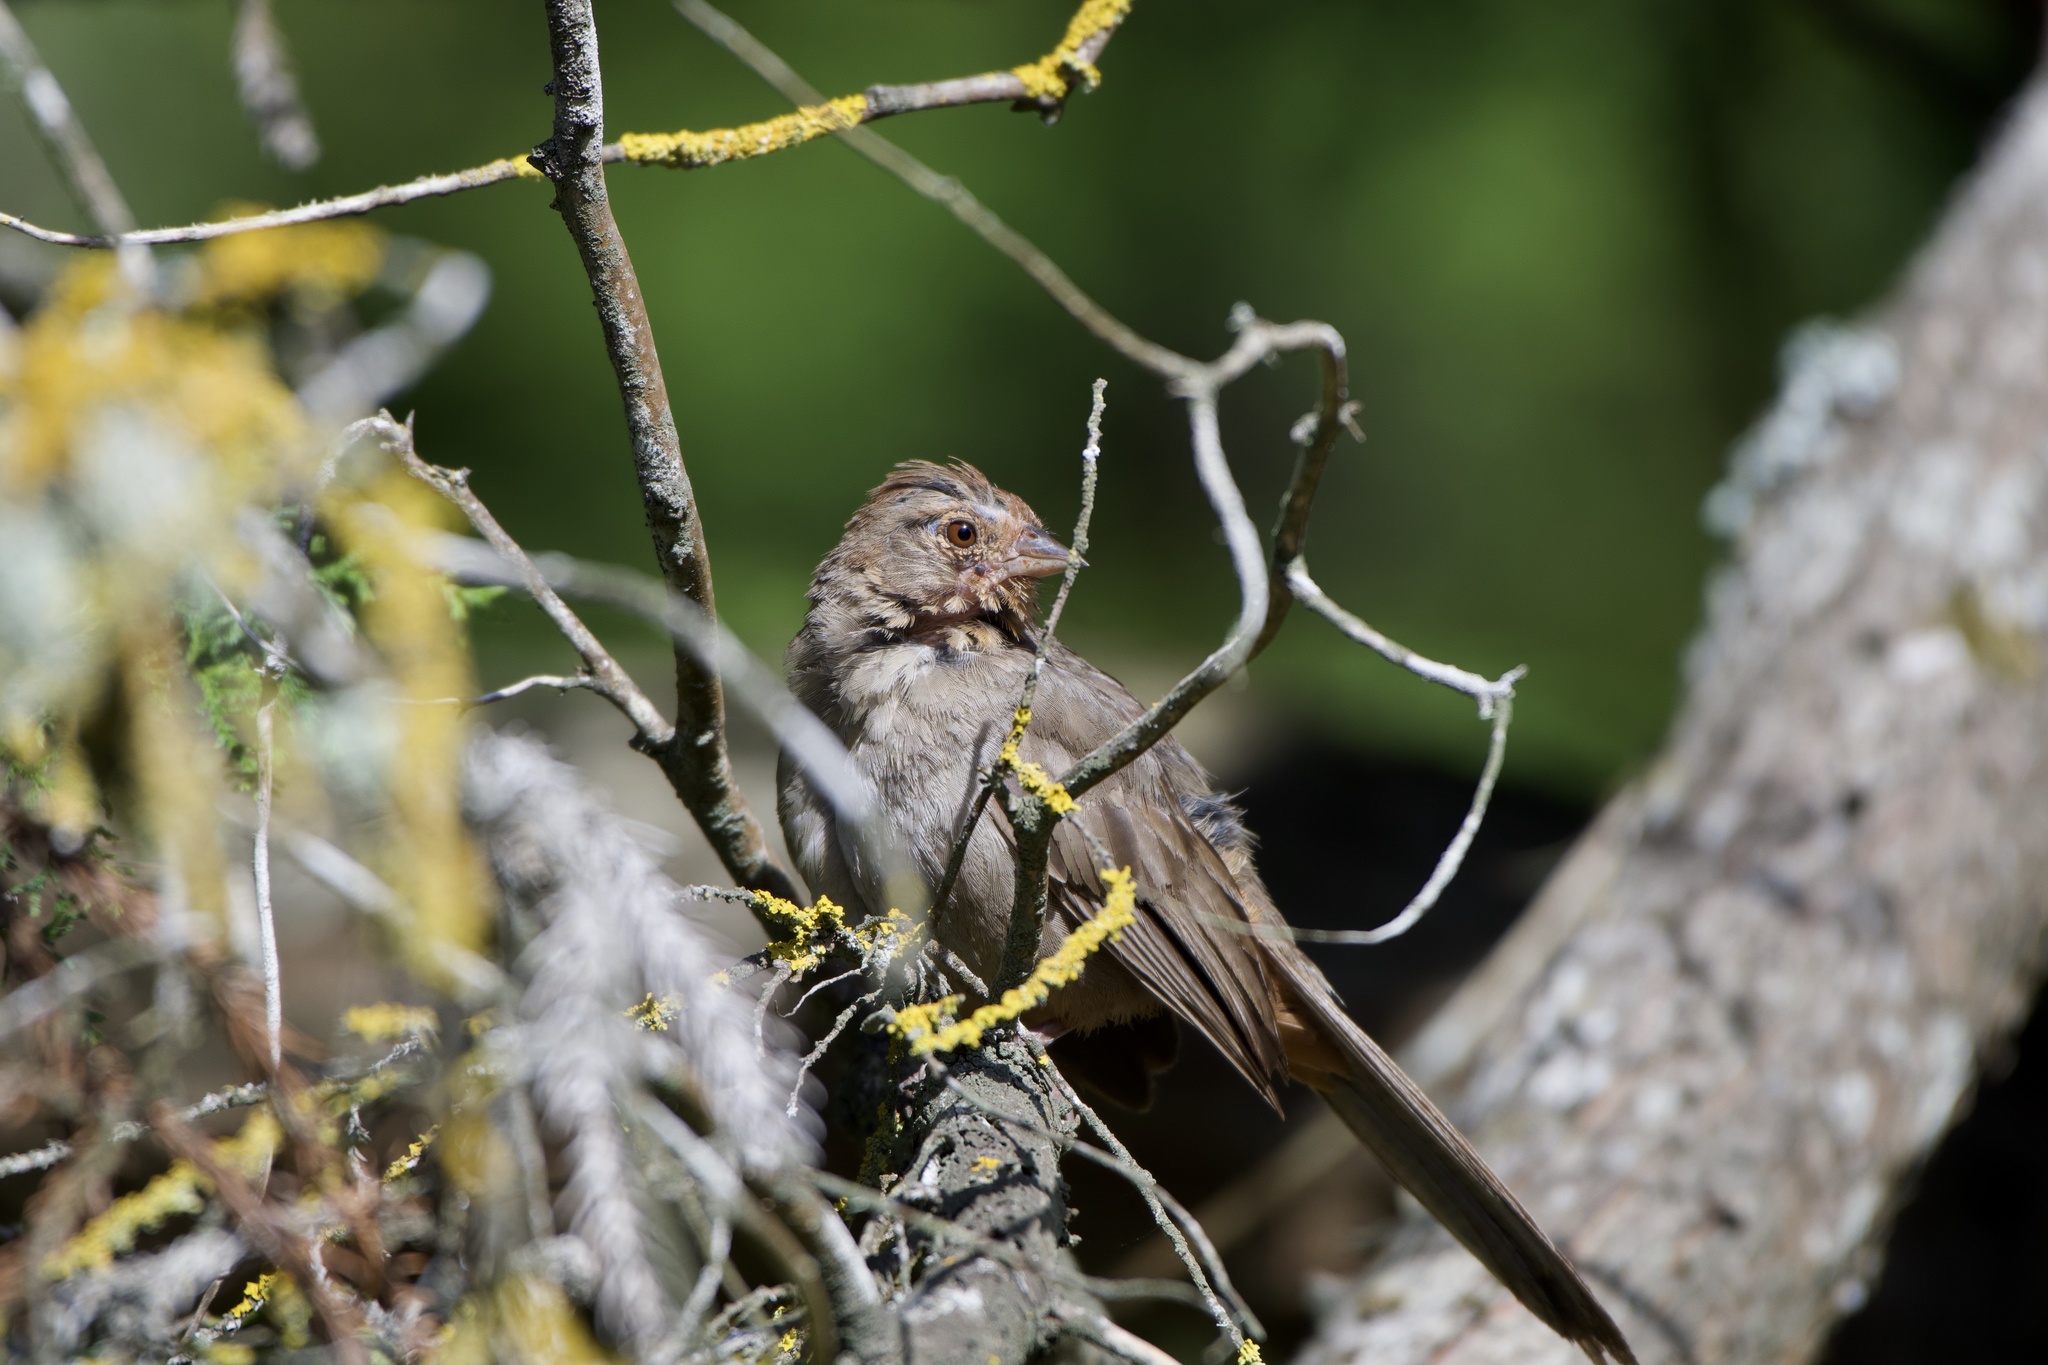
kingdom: Animalia
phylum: Chordata
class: Aves
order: Passeriformes
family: Passerellidae
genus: Melozone
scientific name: Melozone crissalis
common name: California towhee
